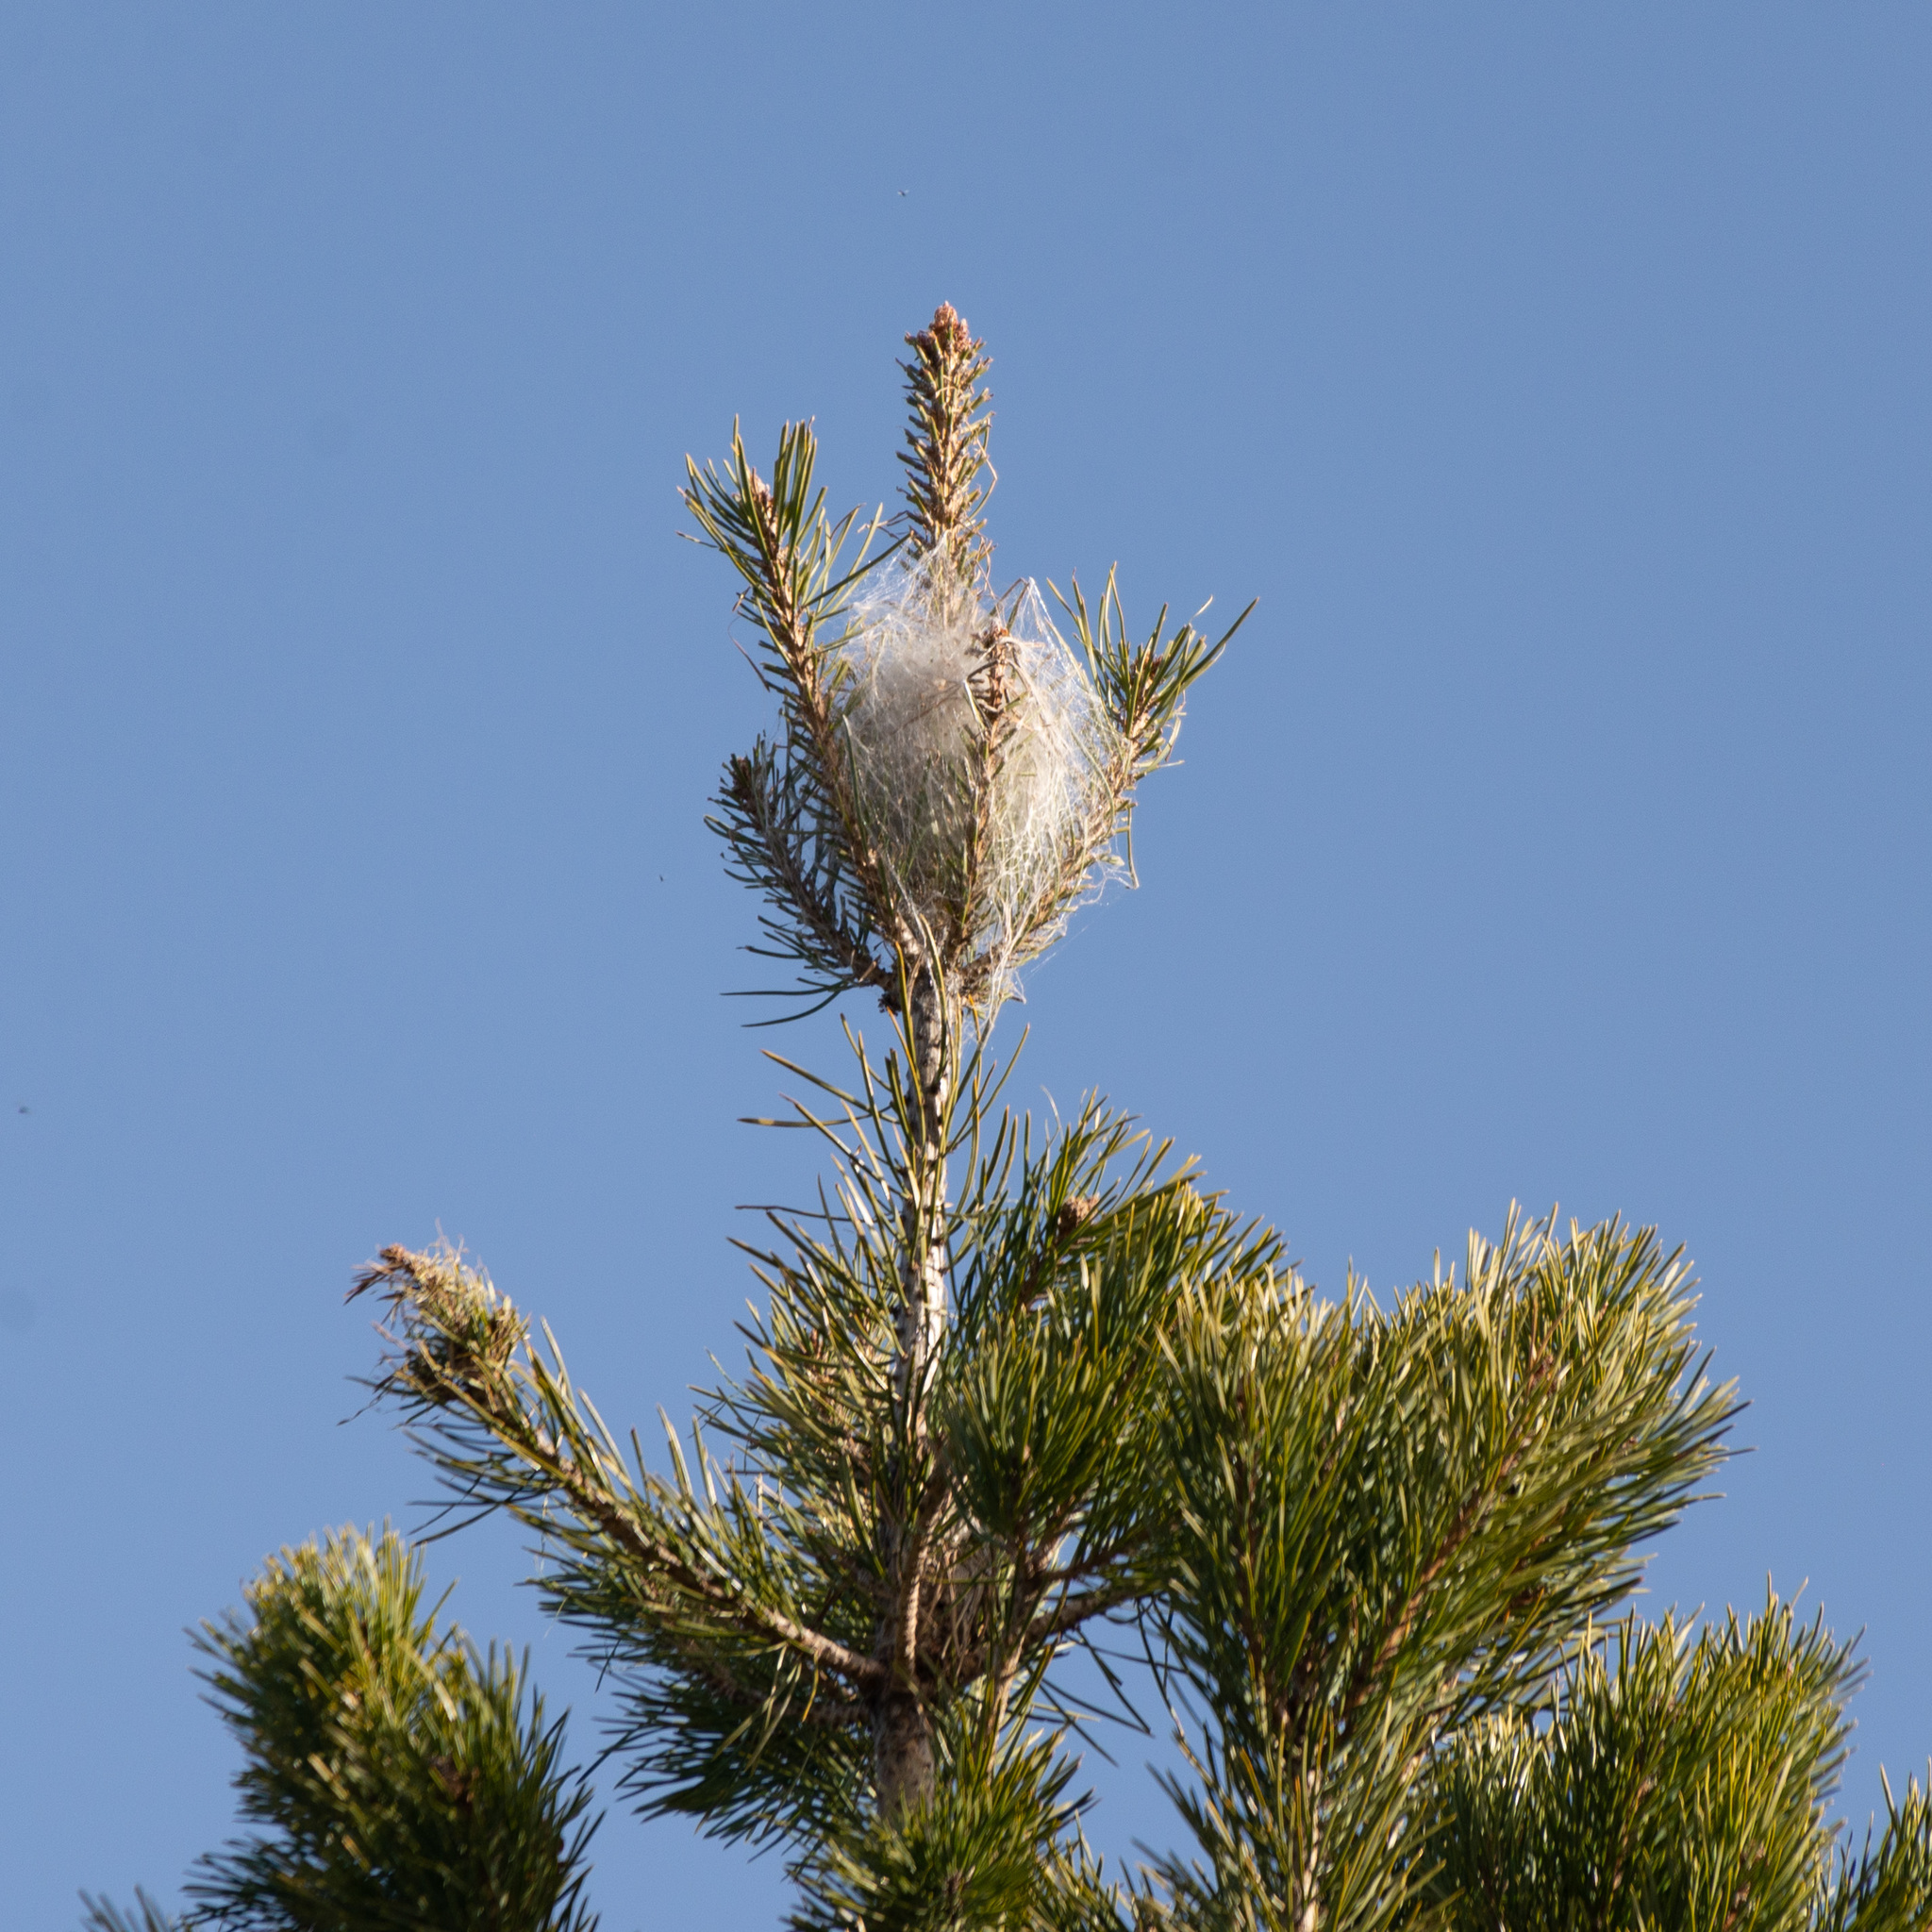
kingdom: Animalia
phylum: Arthropoda
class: Insecta
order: Lepidoptera
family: Notodontidae
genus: Thaumetopoea
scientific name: Thaumetopoea pityocampa
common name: Pine processionary
